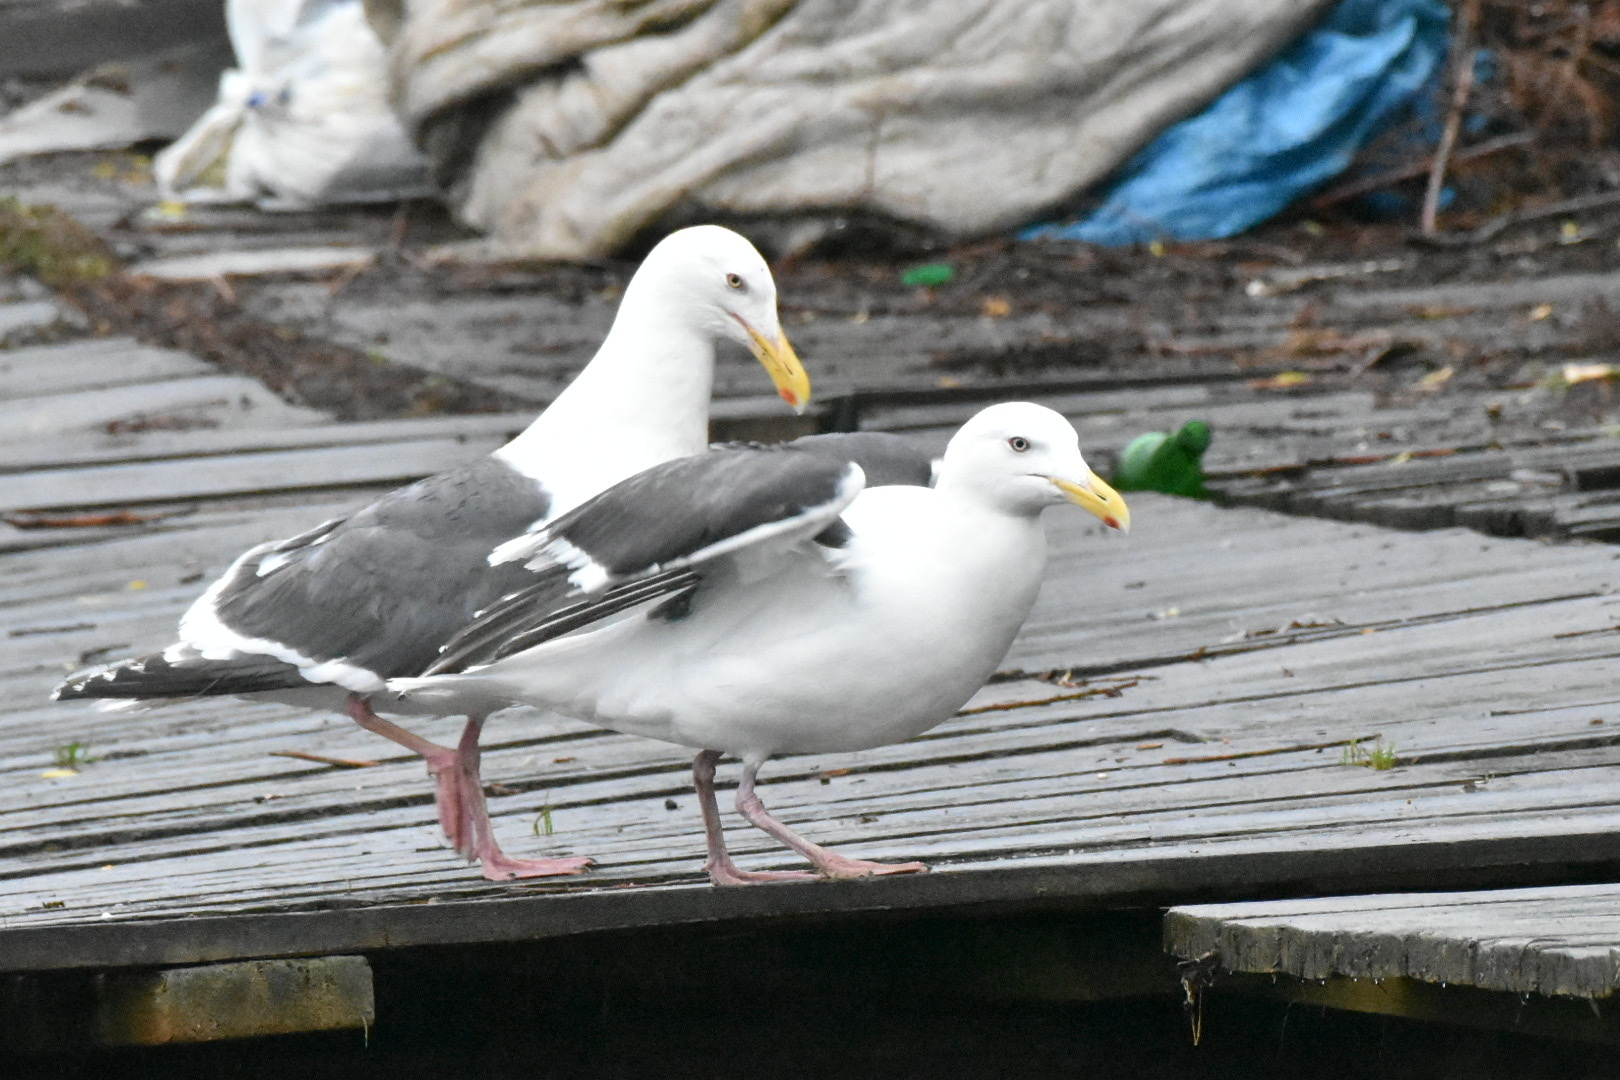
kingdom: Animalia
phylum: Chordata
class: Aves
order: Charadriiformes
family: Laridae
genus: Larus
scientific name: Larus schistisagus
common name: Slaty-backed gull
